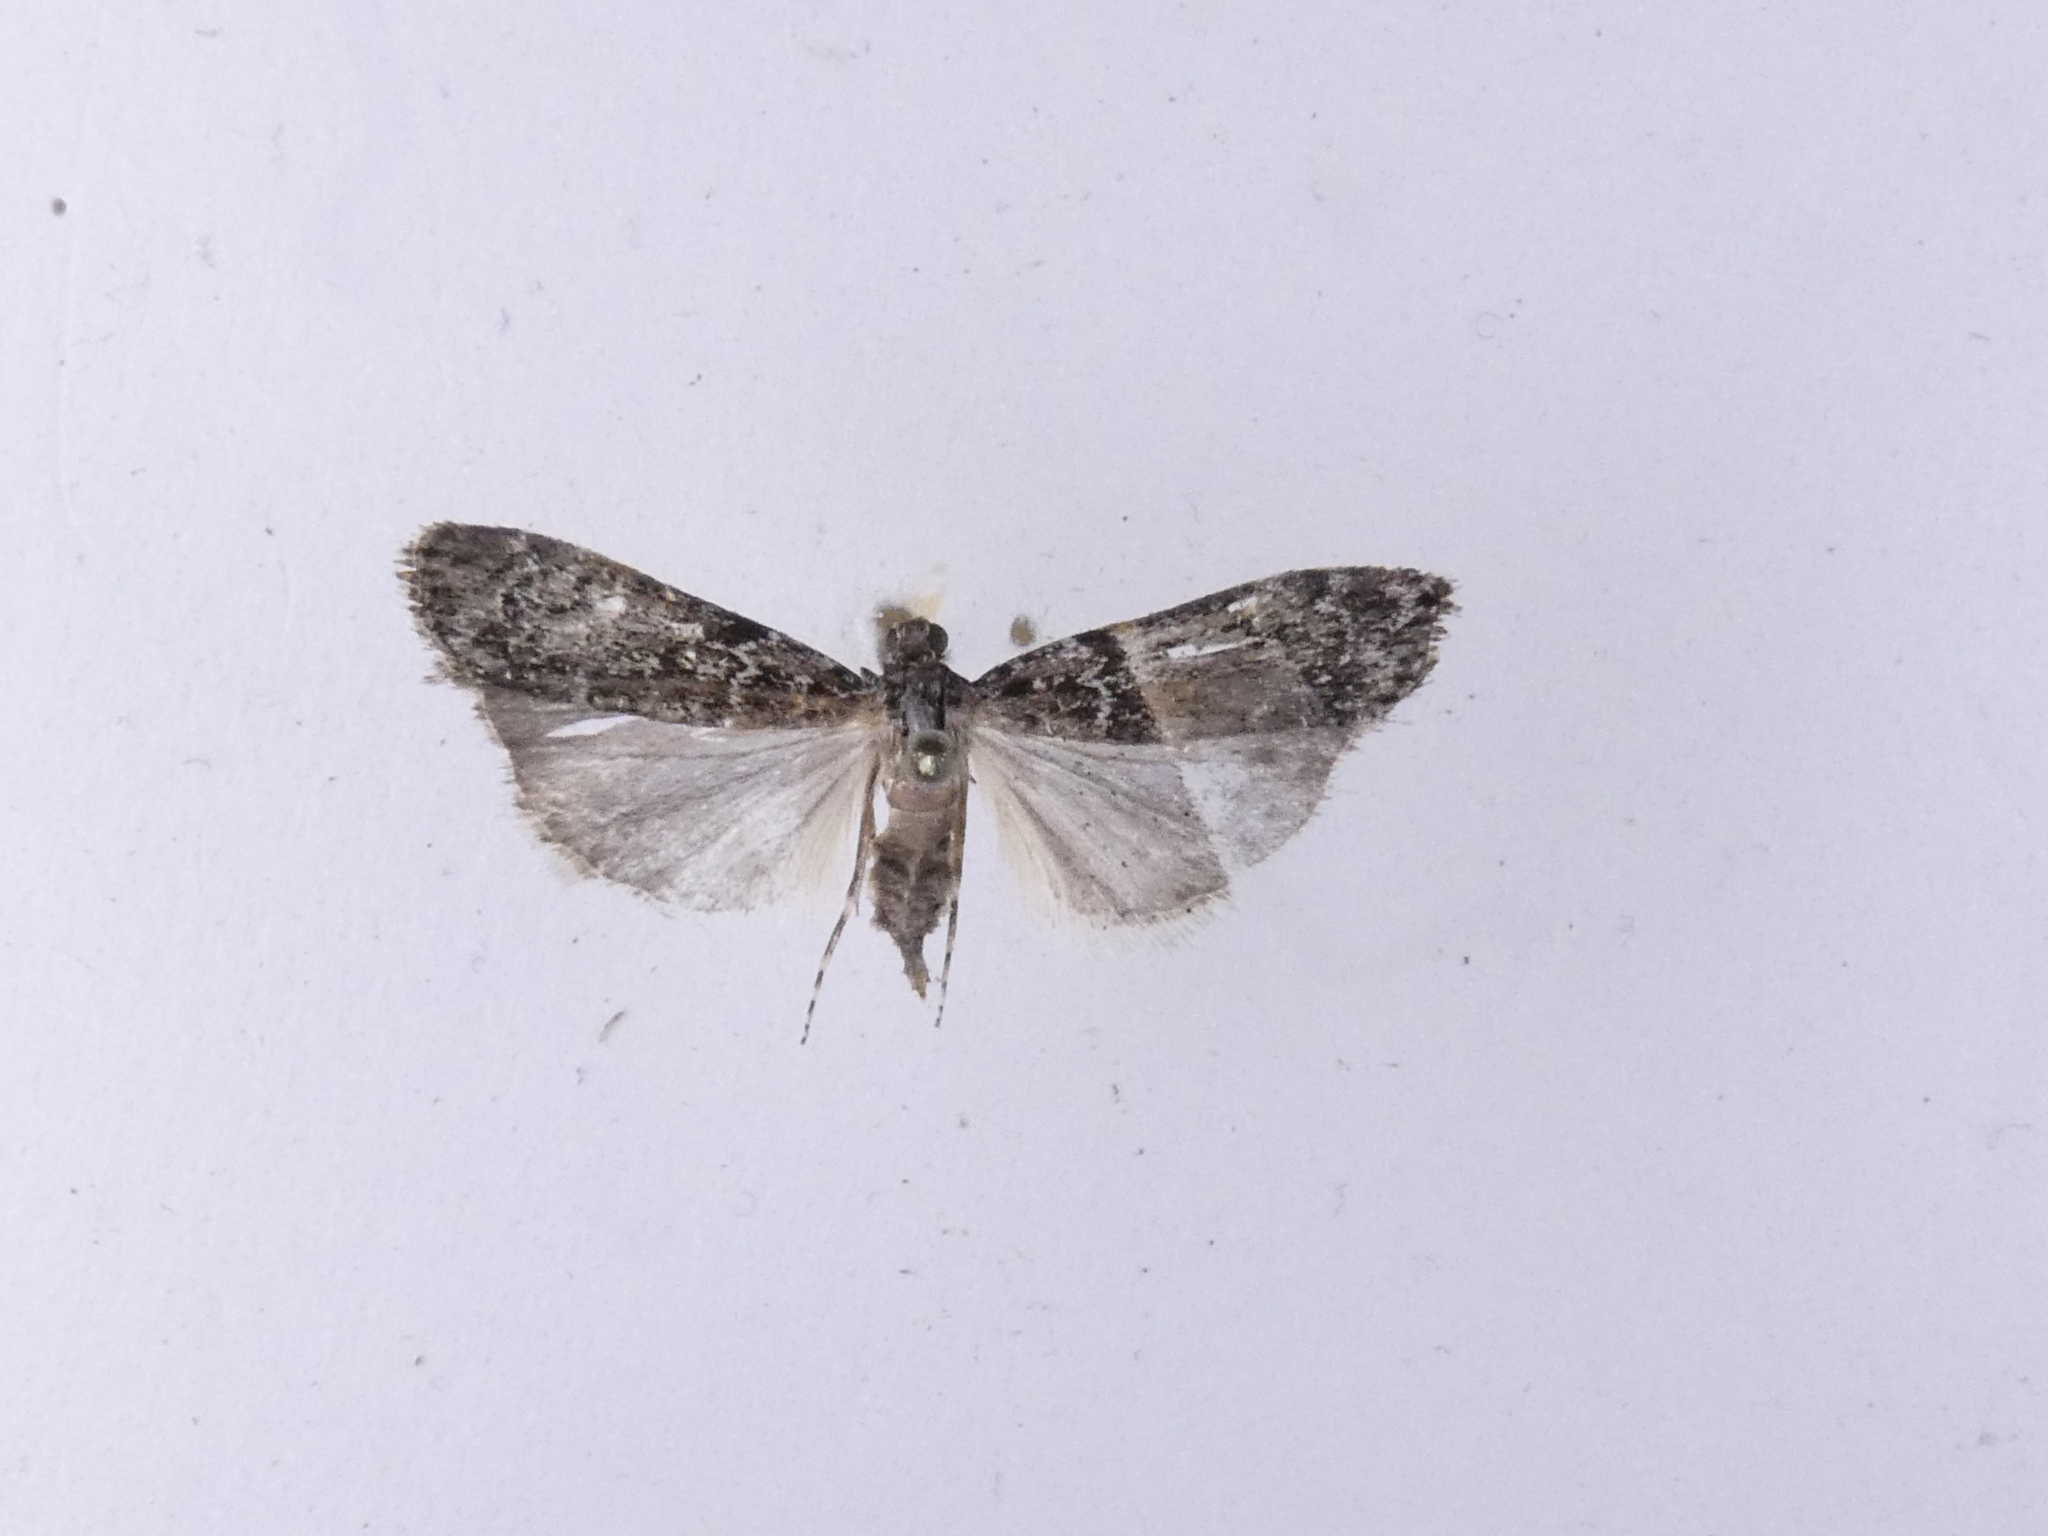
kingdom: Animalia
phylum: Arthropoda
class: Insecta
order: Lepidoptera
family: Crambidae
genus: Eudonia
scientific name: Eudonia philerga
